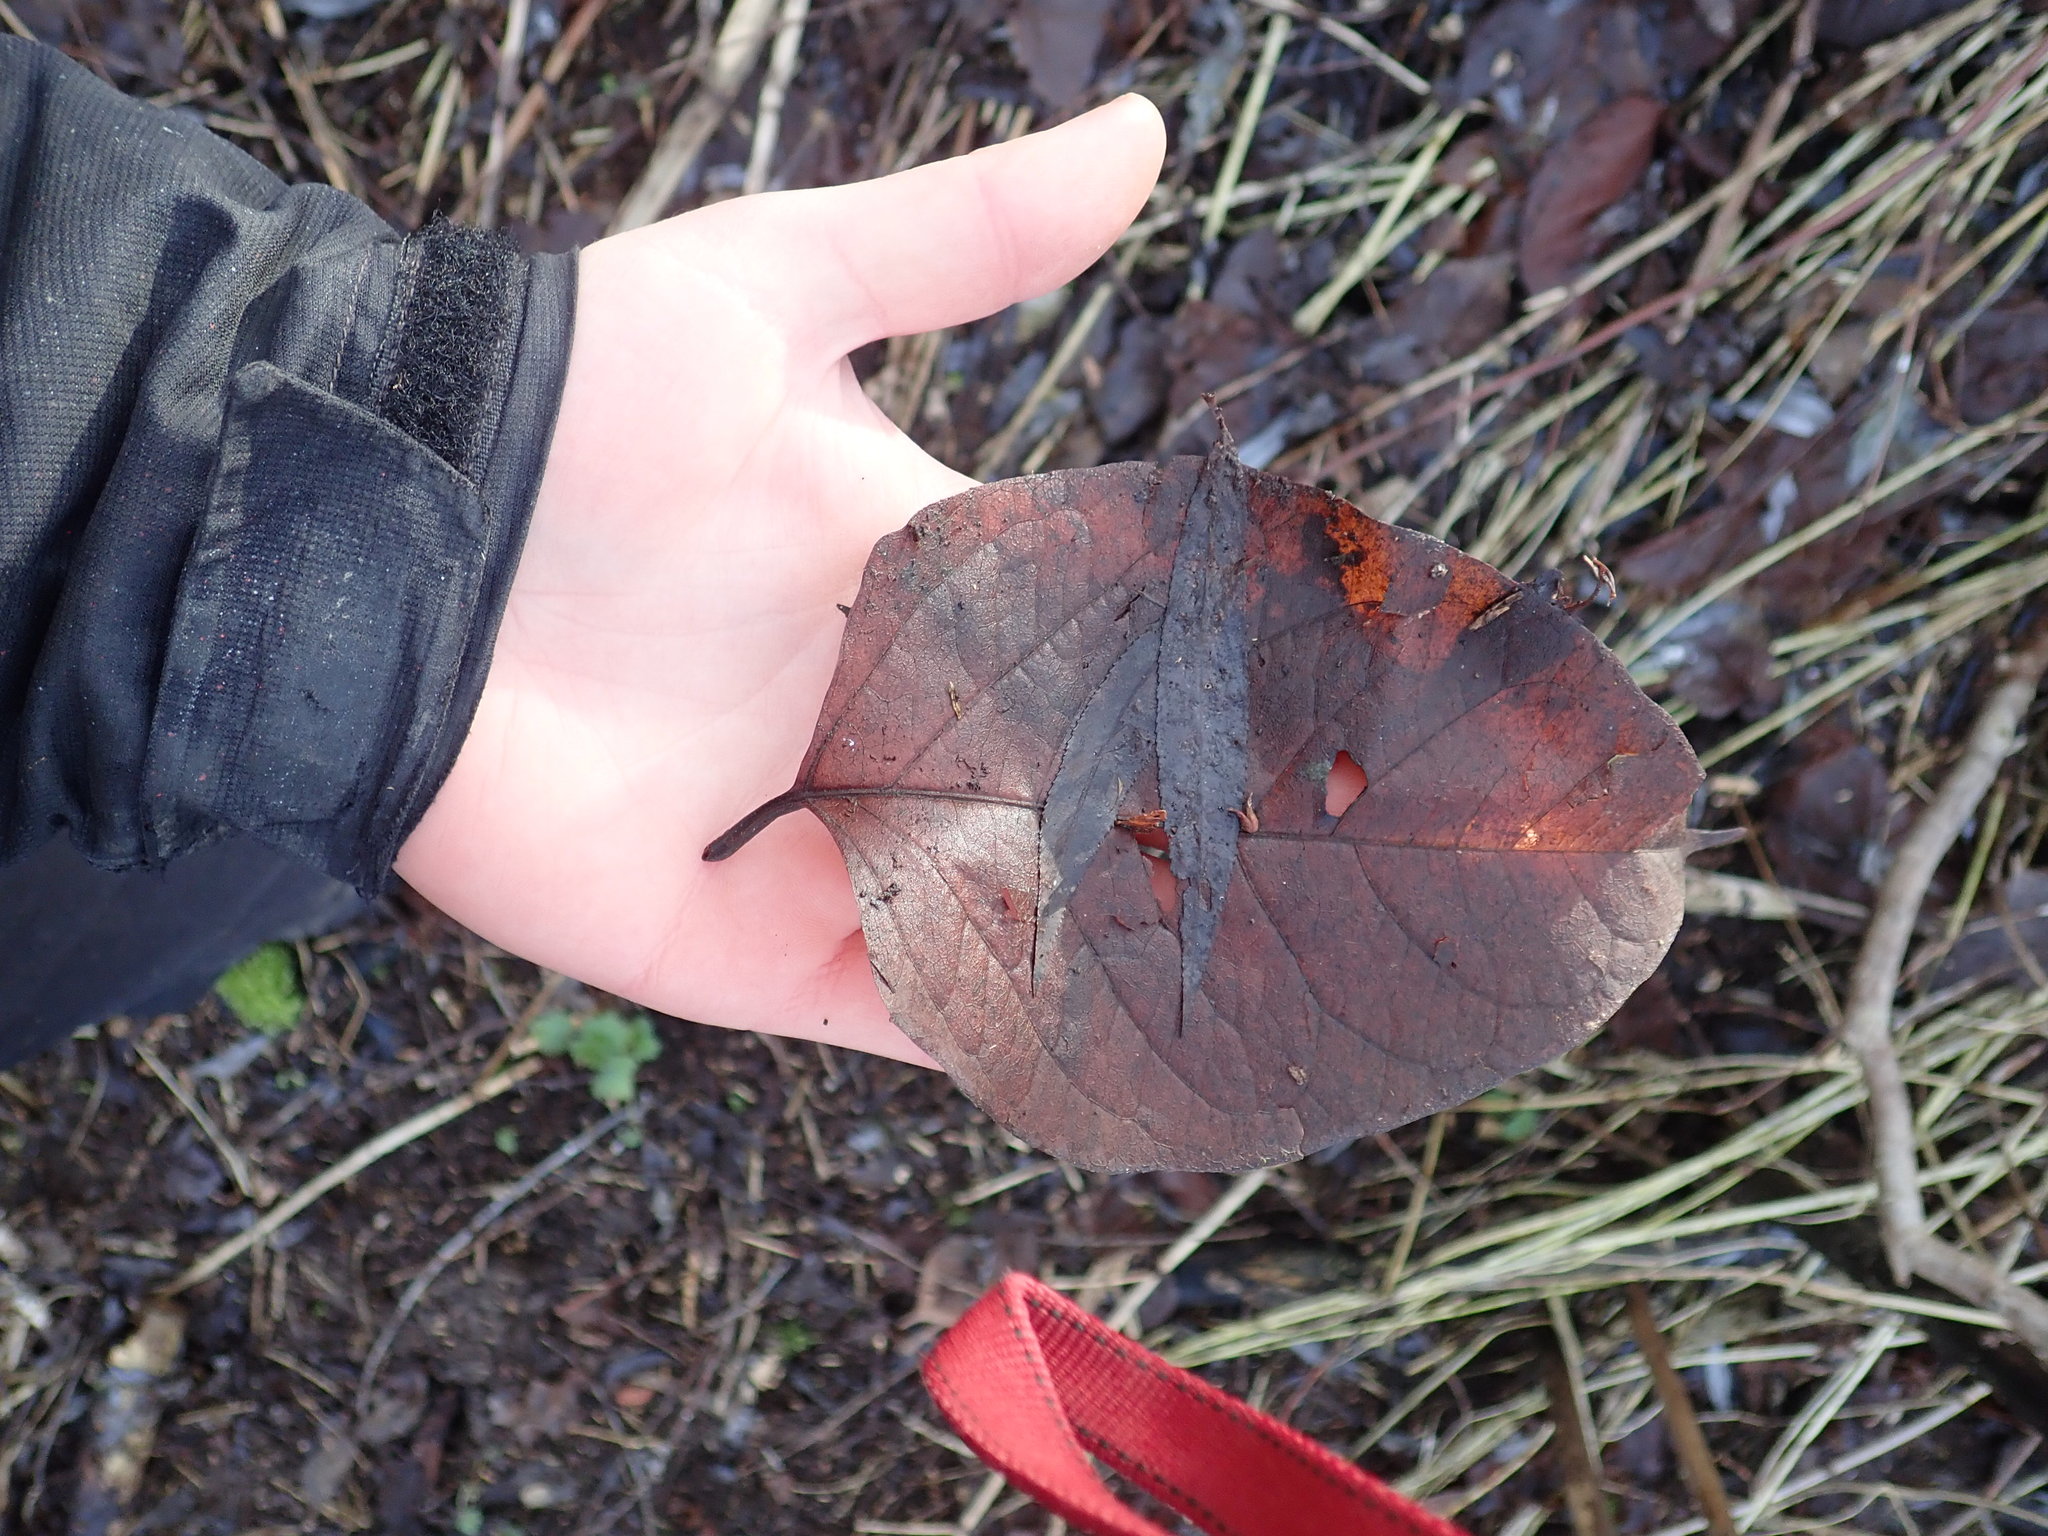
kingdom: Plantae
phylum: Tracheophyta
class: Magnoliopsida
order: Caryophyllales
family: Polygonaceae
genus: Reynoutria
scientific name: Reynoutria japonica
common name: Japanese knotweed
